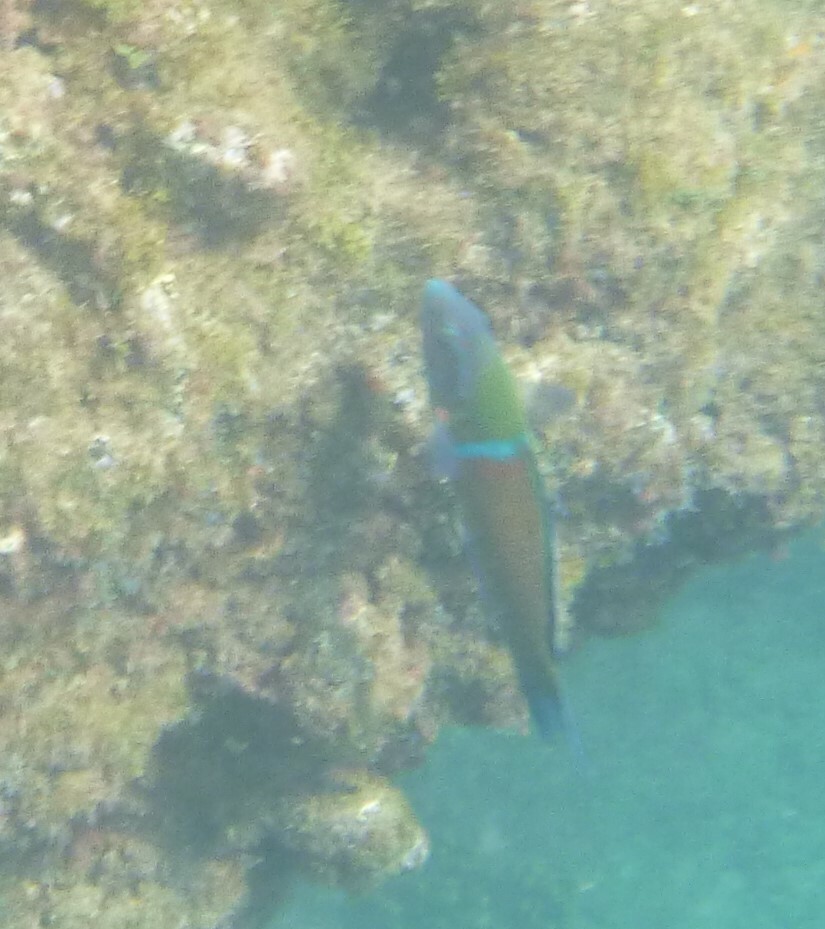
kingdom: Animalia
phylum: Chordata
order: Perciformes
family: Labridae
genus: Thalassoma
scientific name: Thalassoma pavo
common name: Ornate wrasse
